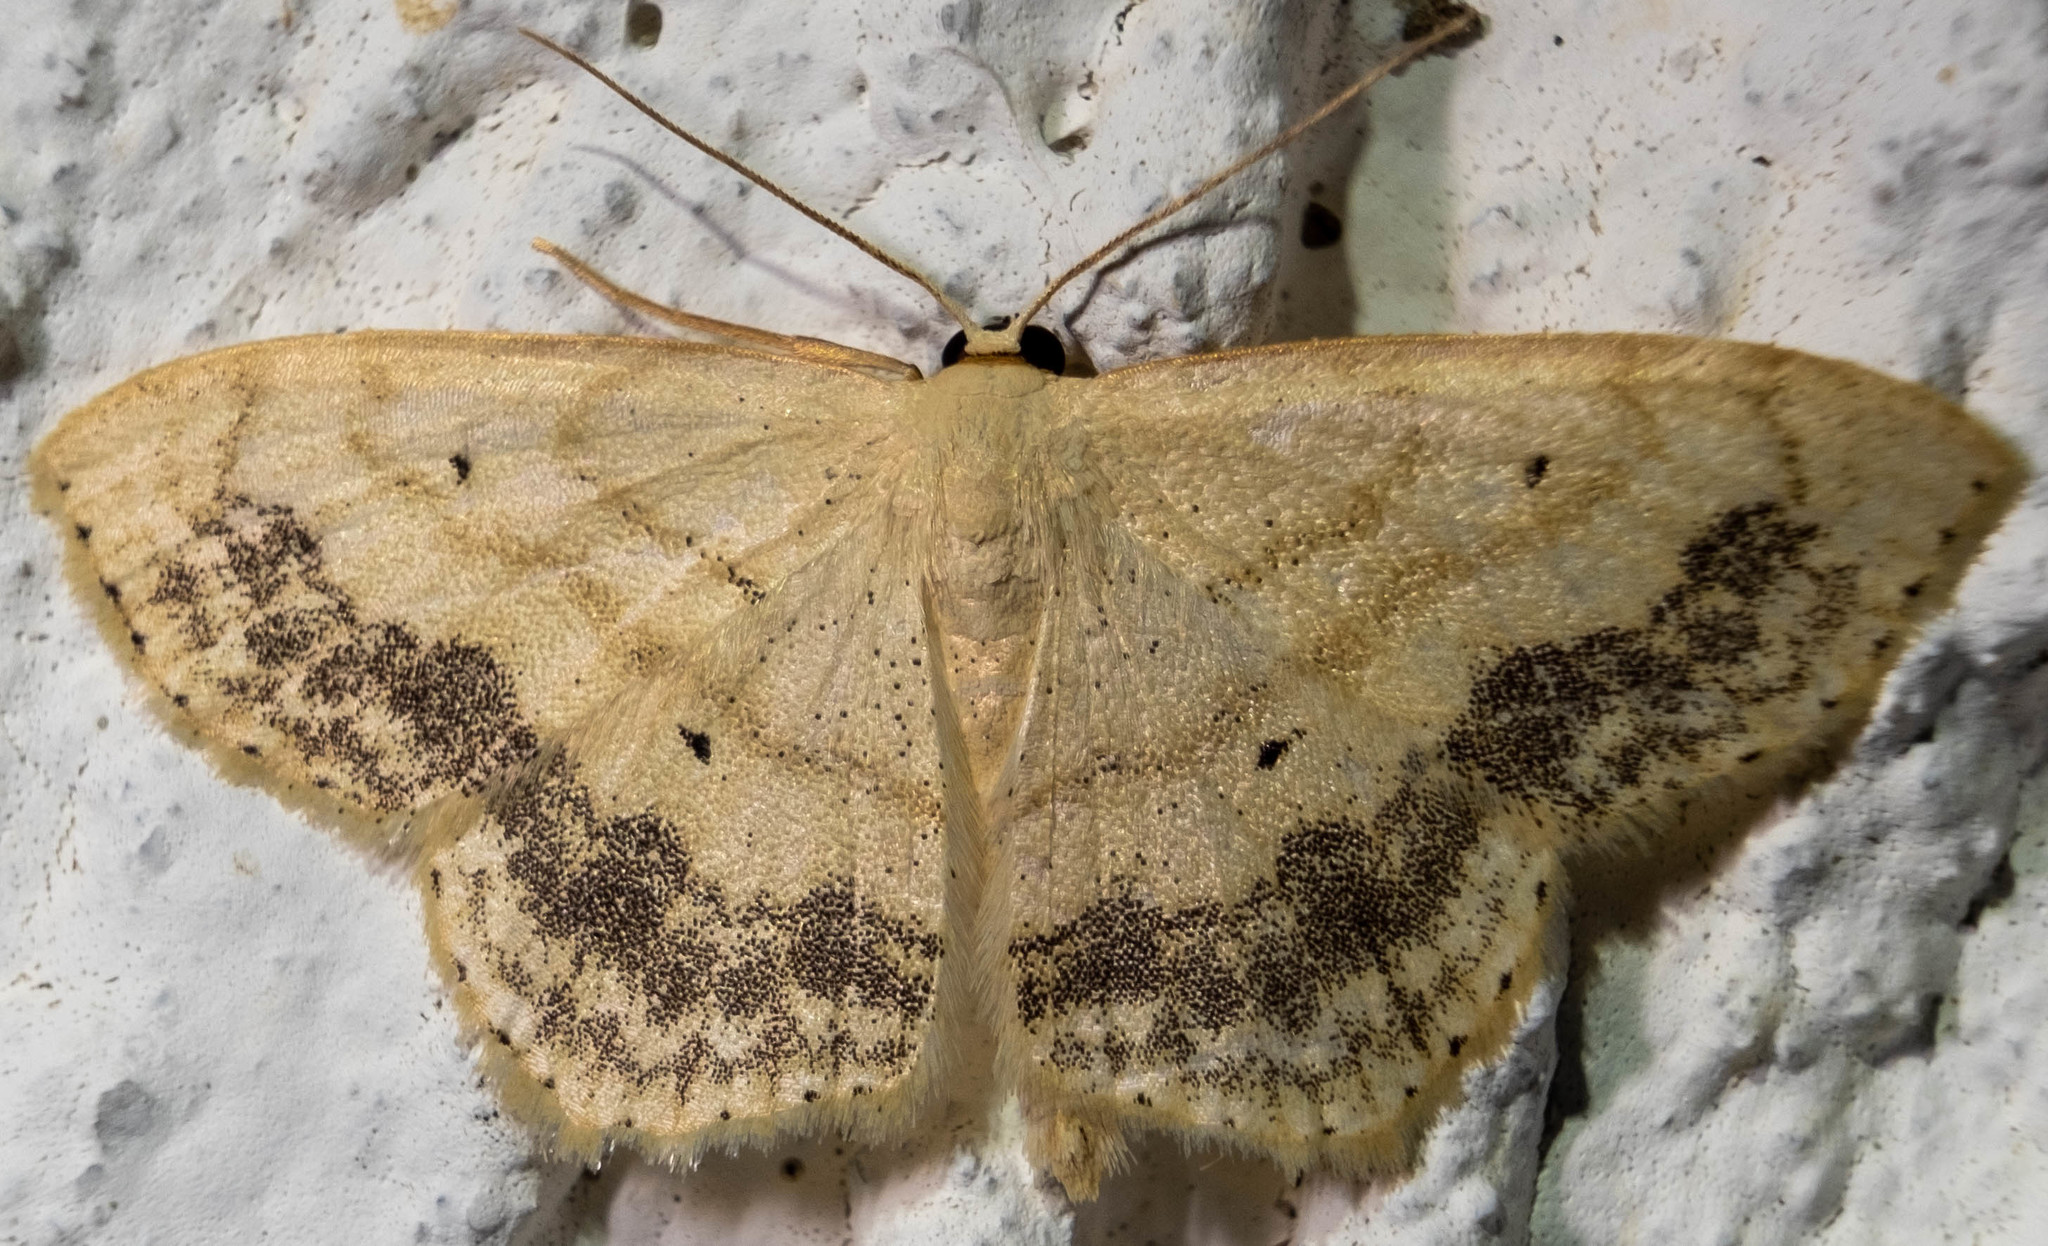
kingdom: Animalia
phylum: Arthropoda
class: Insecta
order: Lepidoptera
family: Geometridae
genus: Scopula
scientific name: Scopula limboundata
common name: Large lace border
